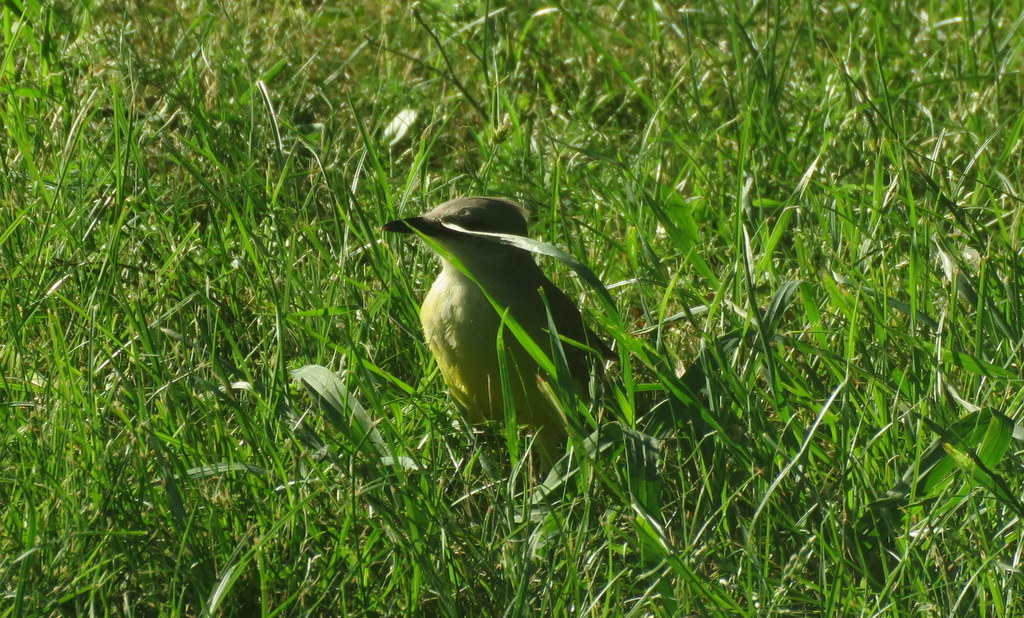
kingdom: Animalia
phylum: Chordata
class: Aves
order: Passeriformes
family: Tyrannidae
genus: Machetornis
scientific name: Machetornis rixosa
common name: Cattle tyrant
